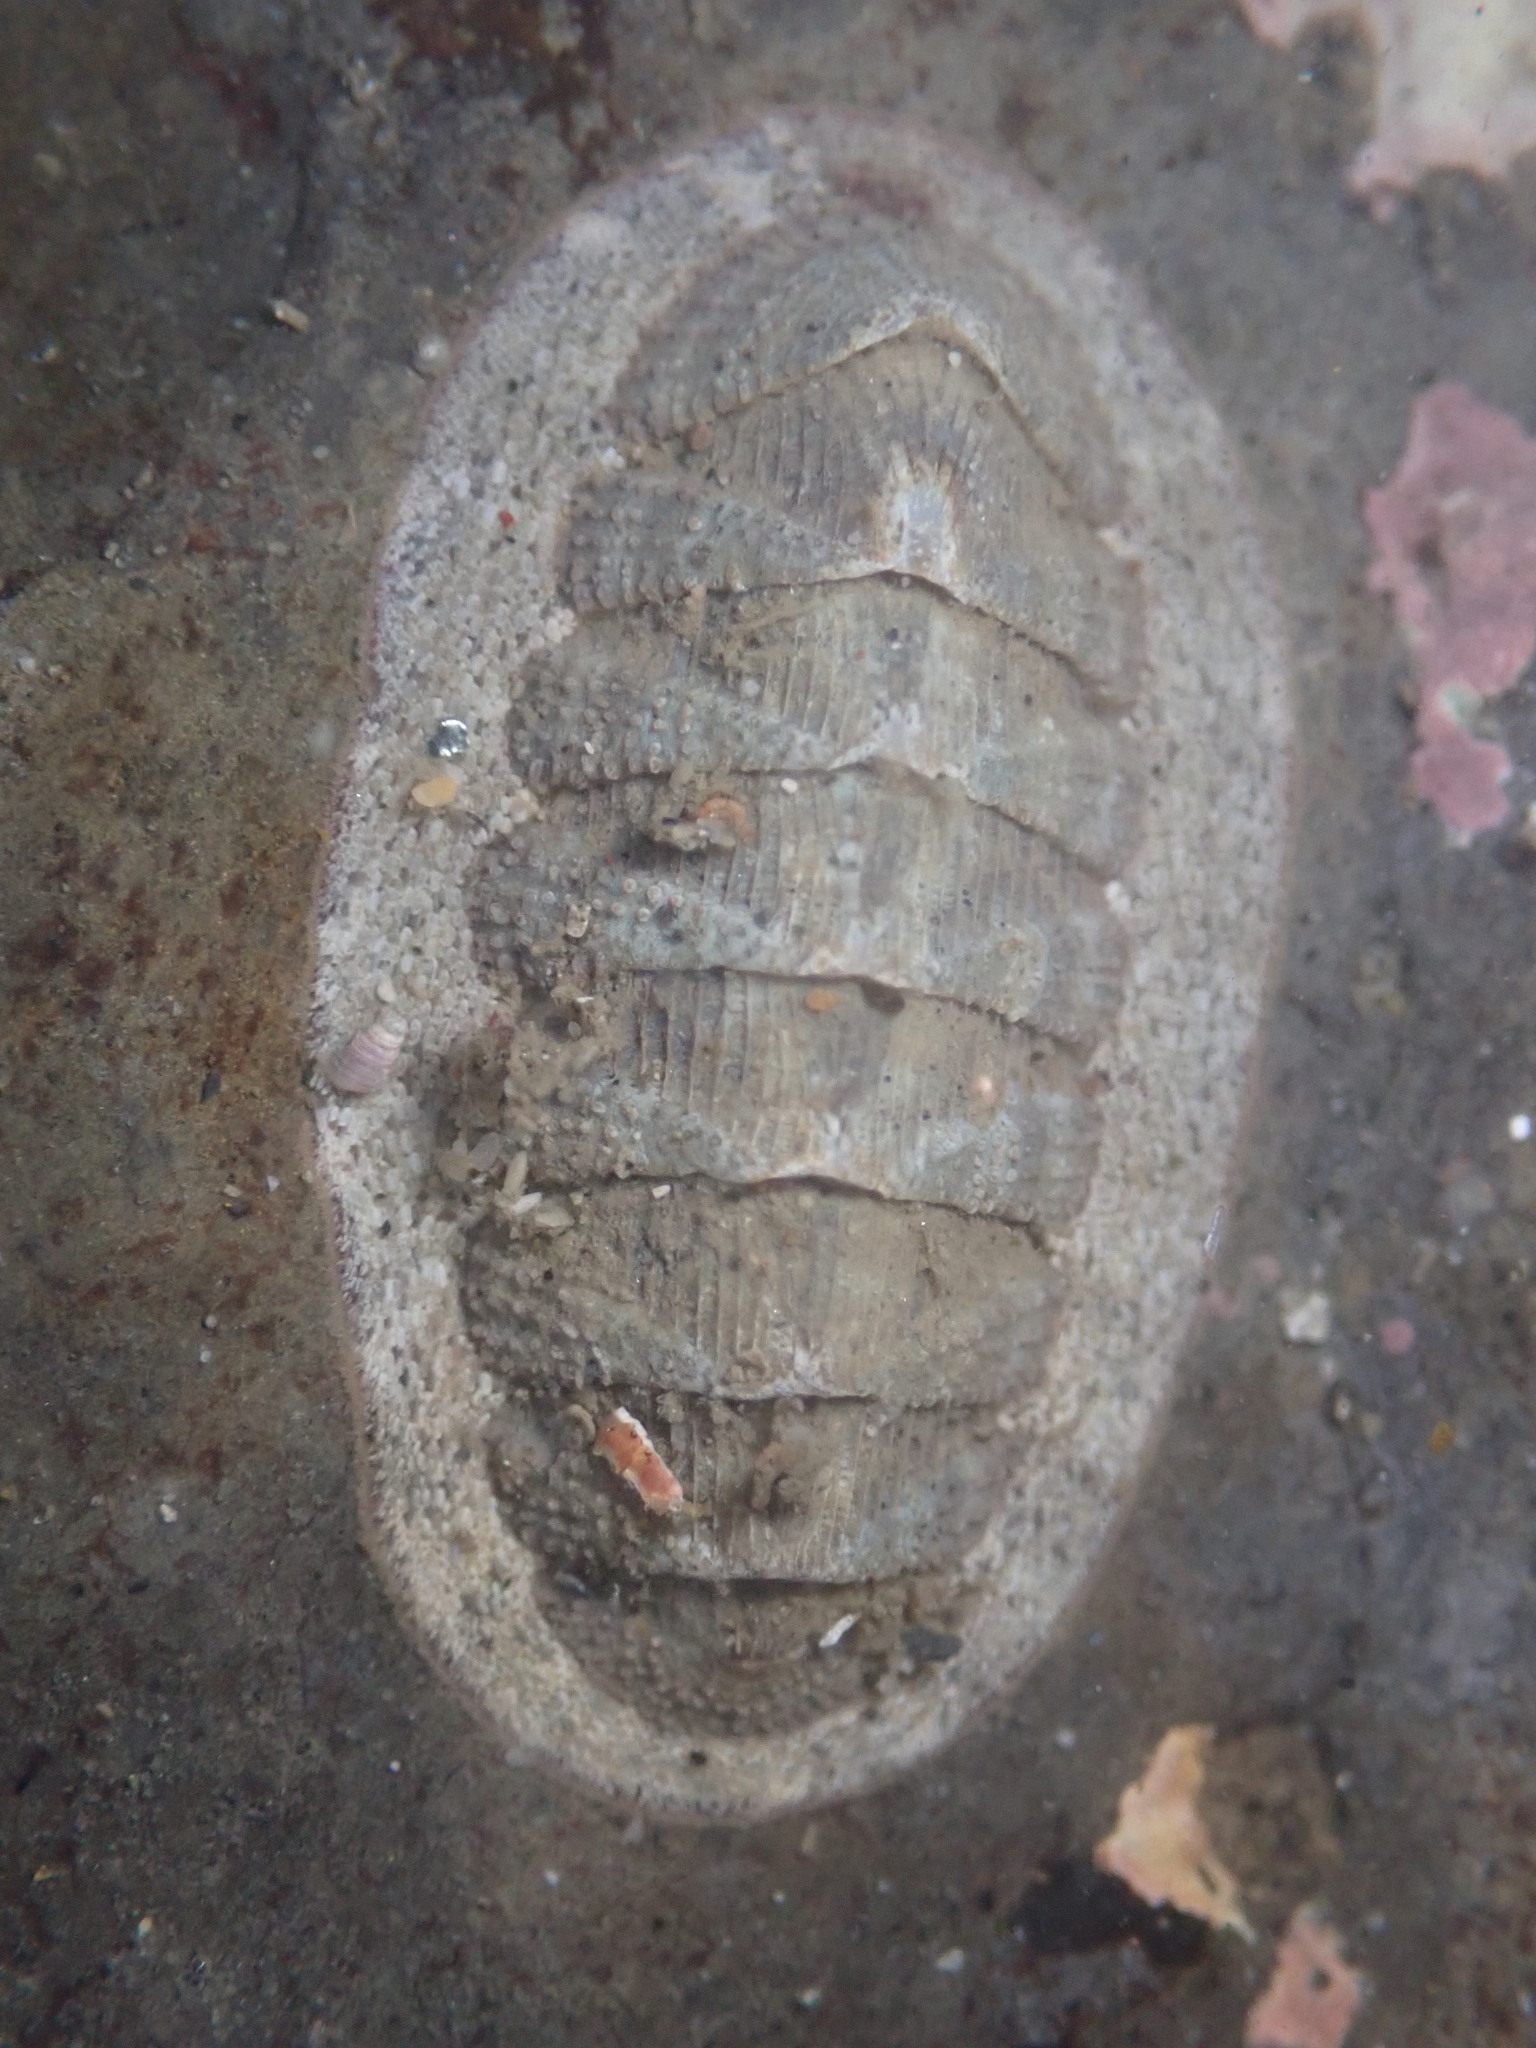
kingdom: Animalia
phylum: Mollusca
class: Polyplacophora
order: Chitonida
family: Ischnochitonidae
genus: Lepidozona
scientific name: Lepidozona cooperi
